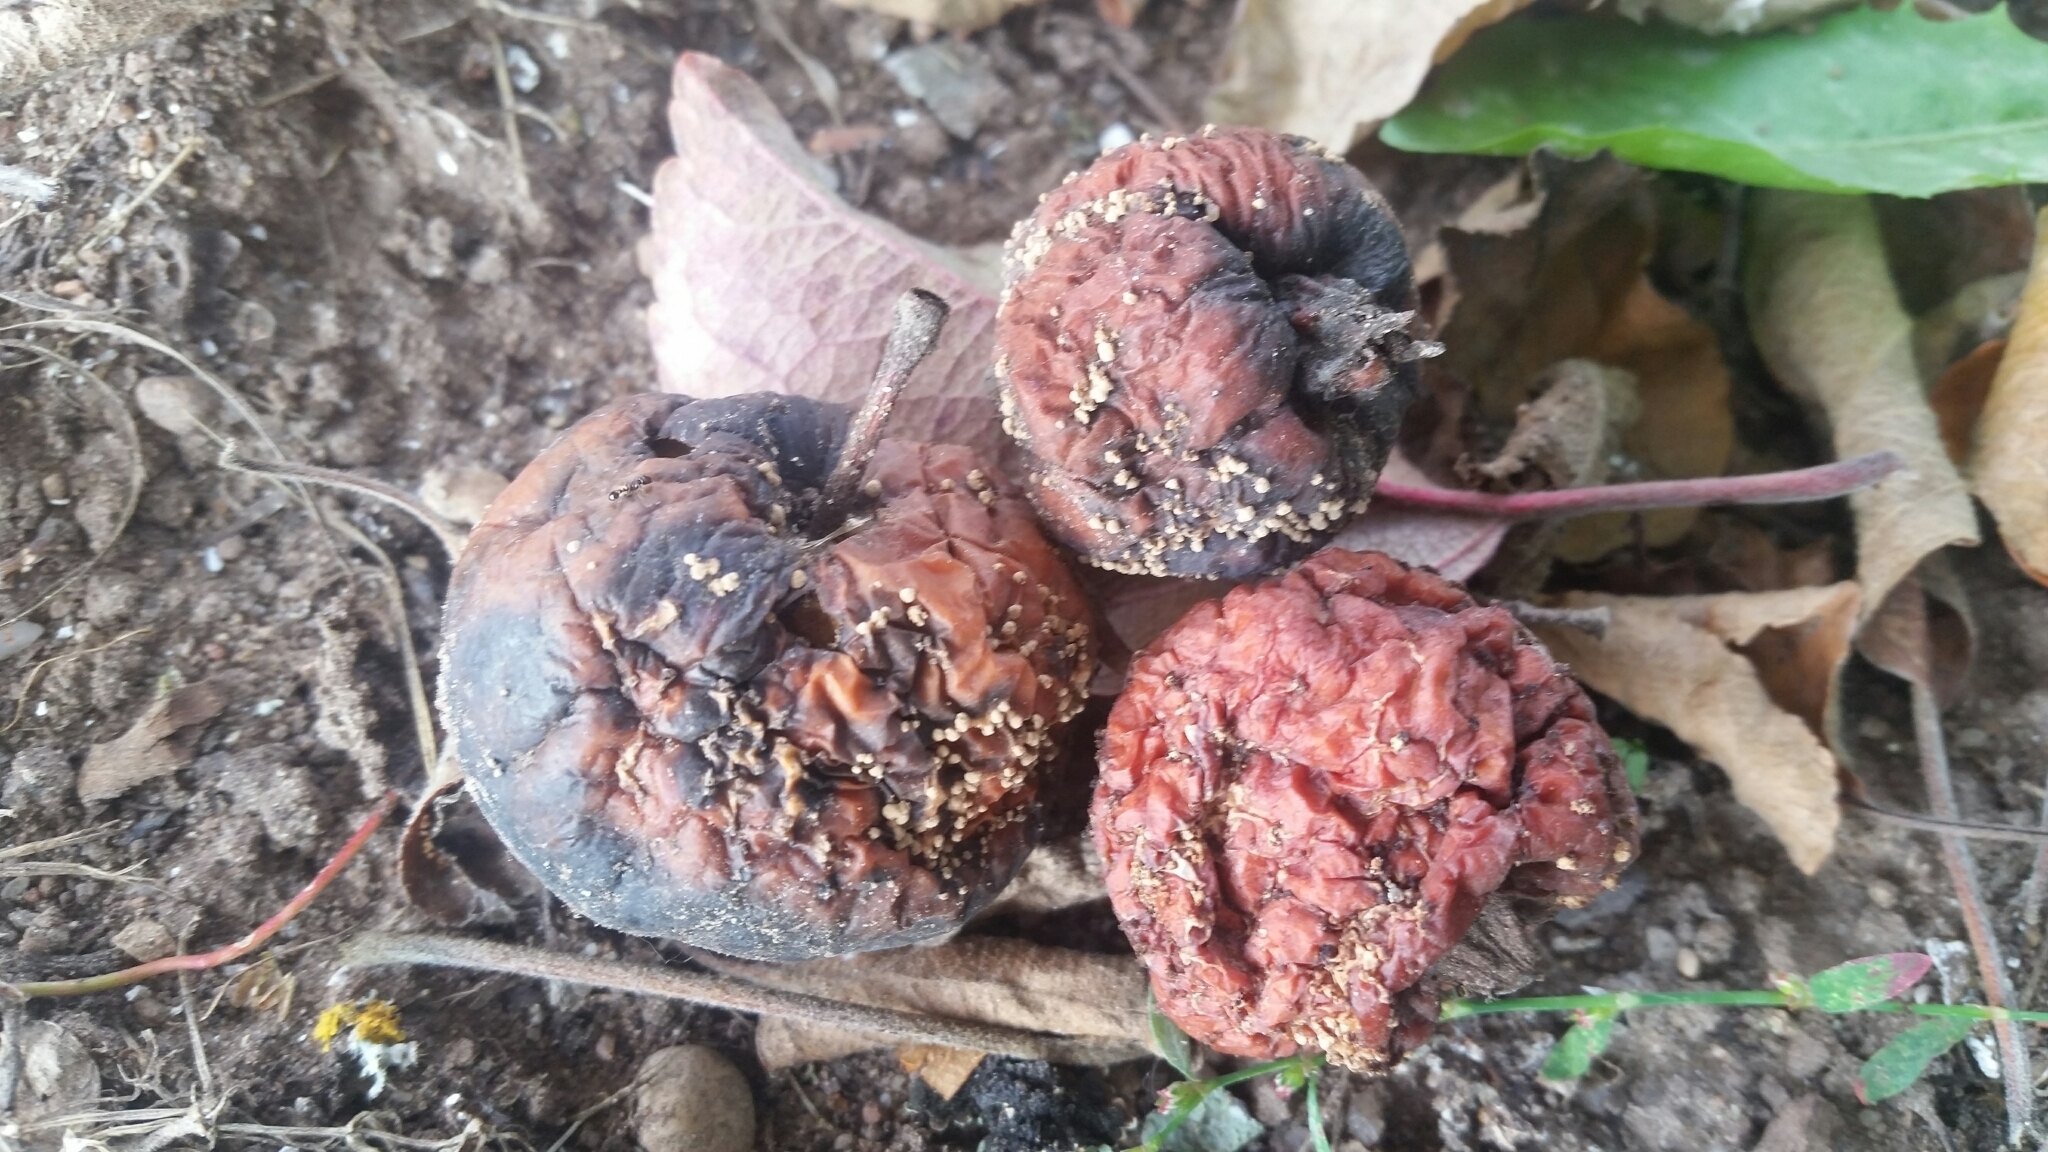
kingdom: Fungi
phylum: Ascomycota
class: Leotiomycetes
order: Helotiales
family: Sclerotiniaceae
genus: Monilinia
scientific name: Monilinia fructigena
